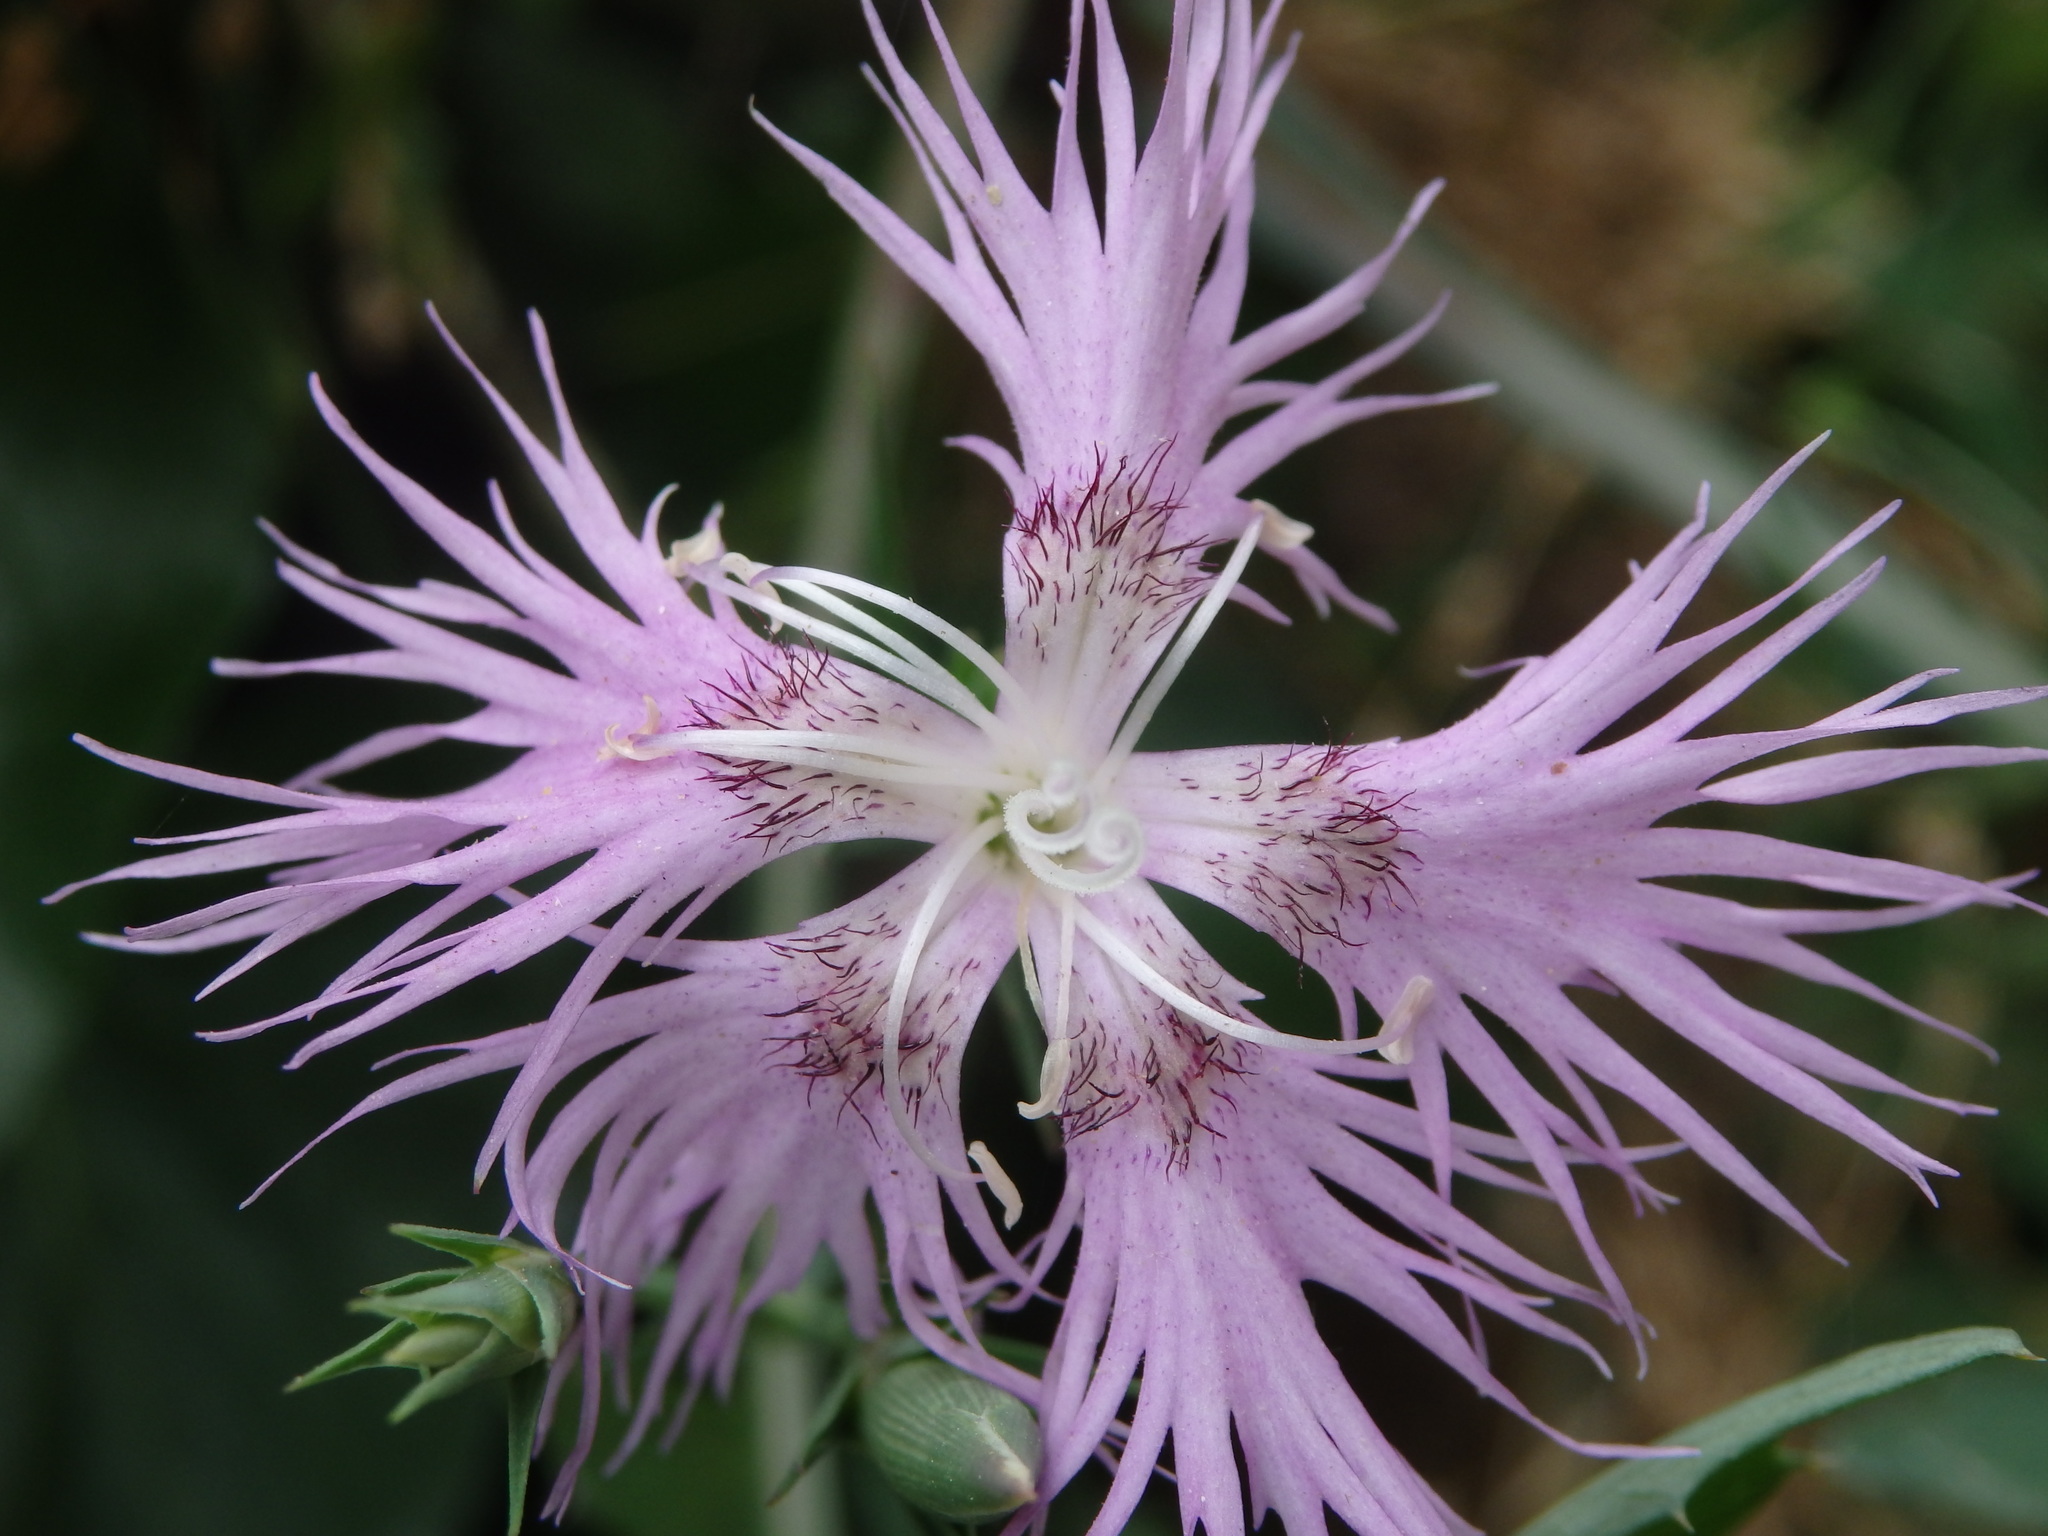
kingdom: Plantae
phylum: Tracheophyta
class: Magnoliopsida
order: Caryophyllales
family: Caryophyllaceae
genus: Dianthus
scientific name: Dianthus hyssopifolius
